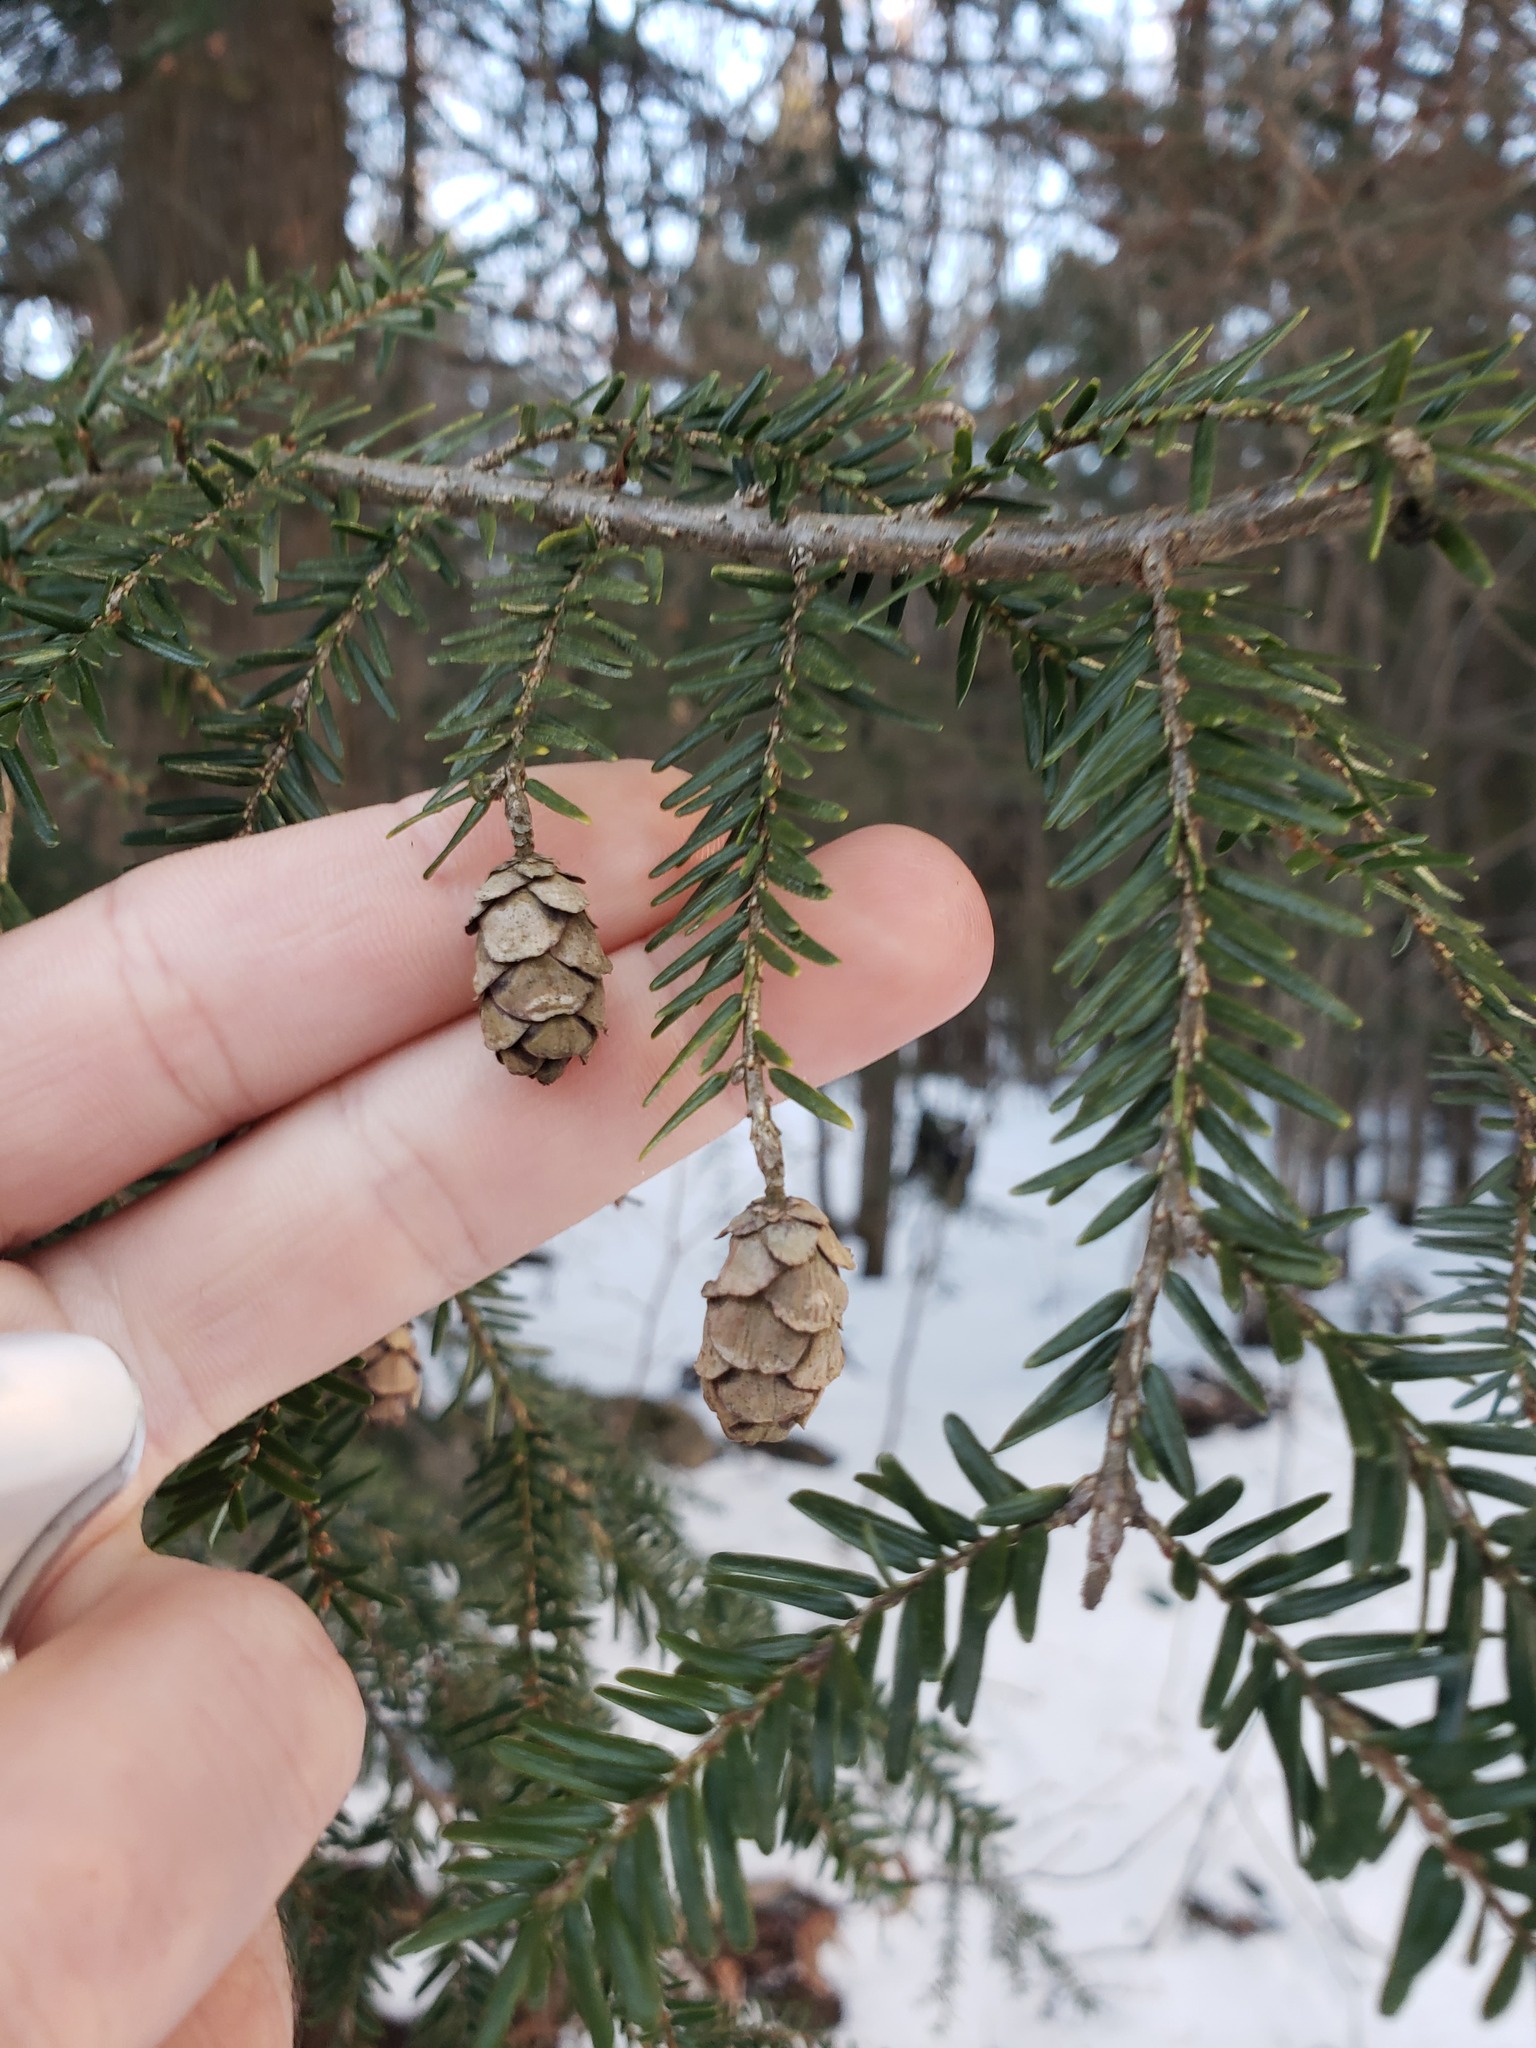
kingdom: Plantae
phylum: Tracheophyta
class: Pinopsida
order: Pinales
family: Pinaceae
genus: Tsuga
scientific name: Tsuga canadensis
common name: Eastern hemlock
